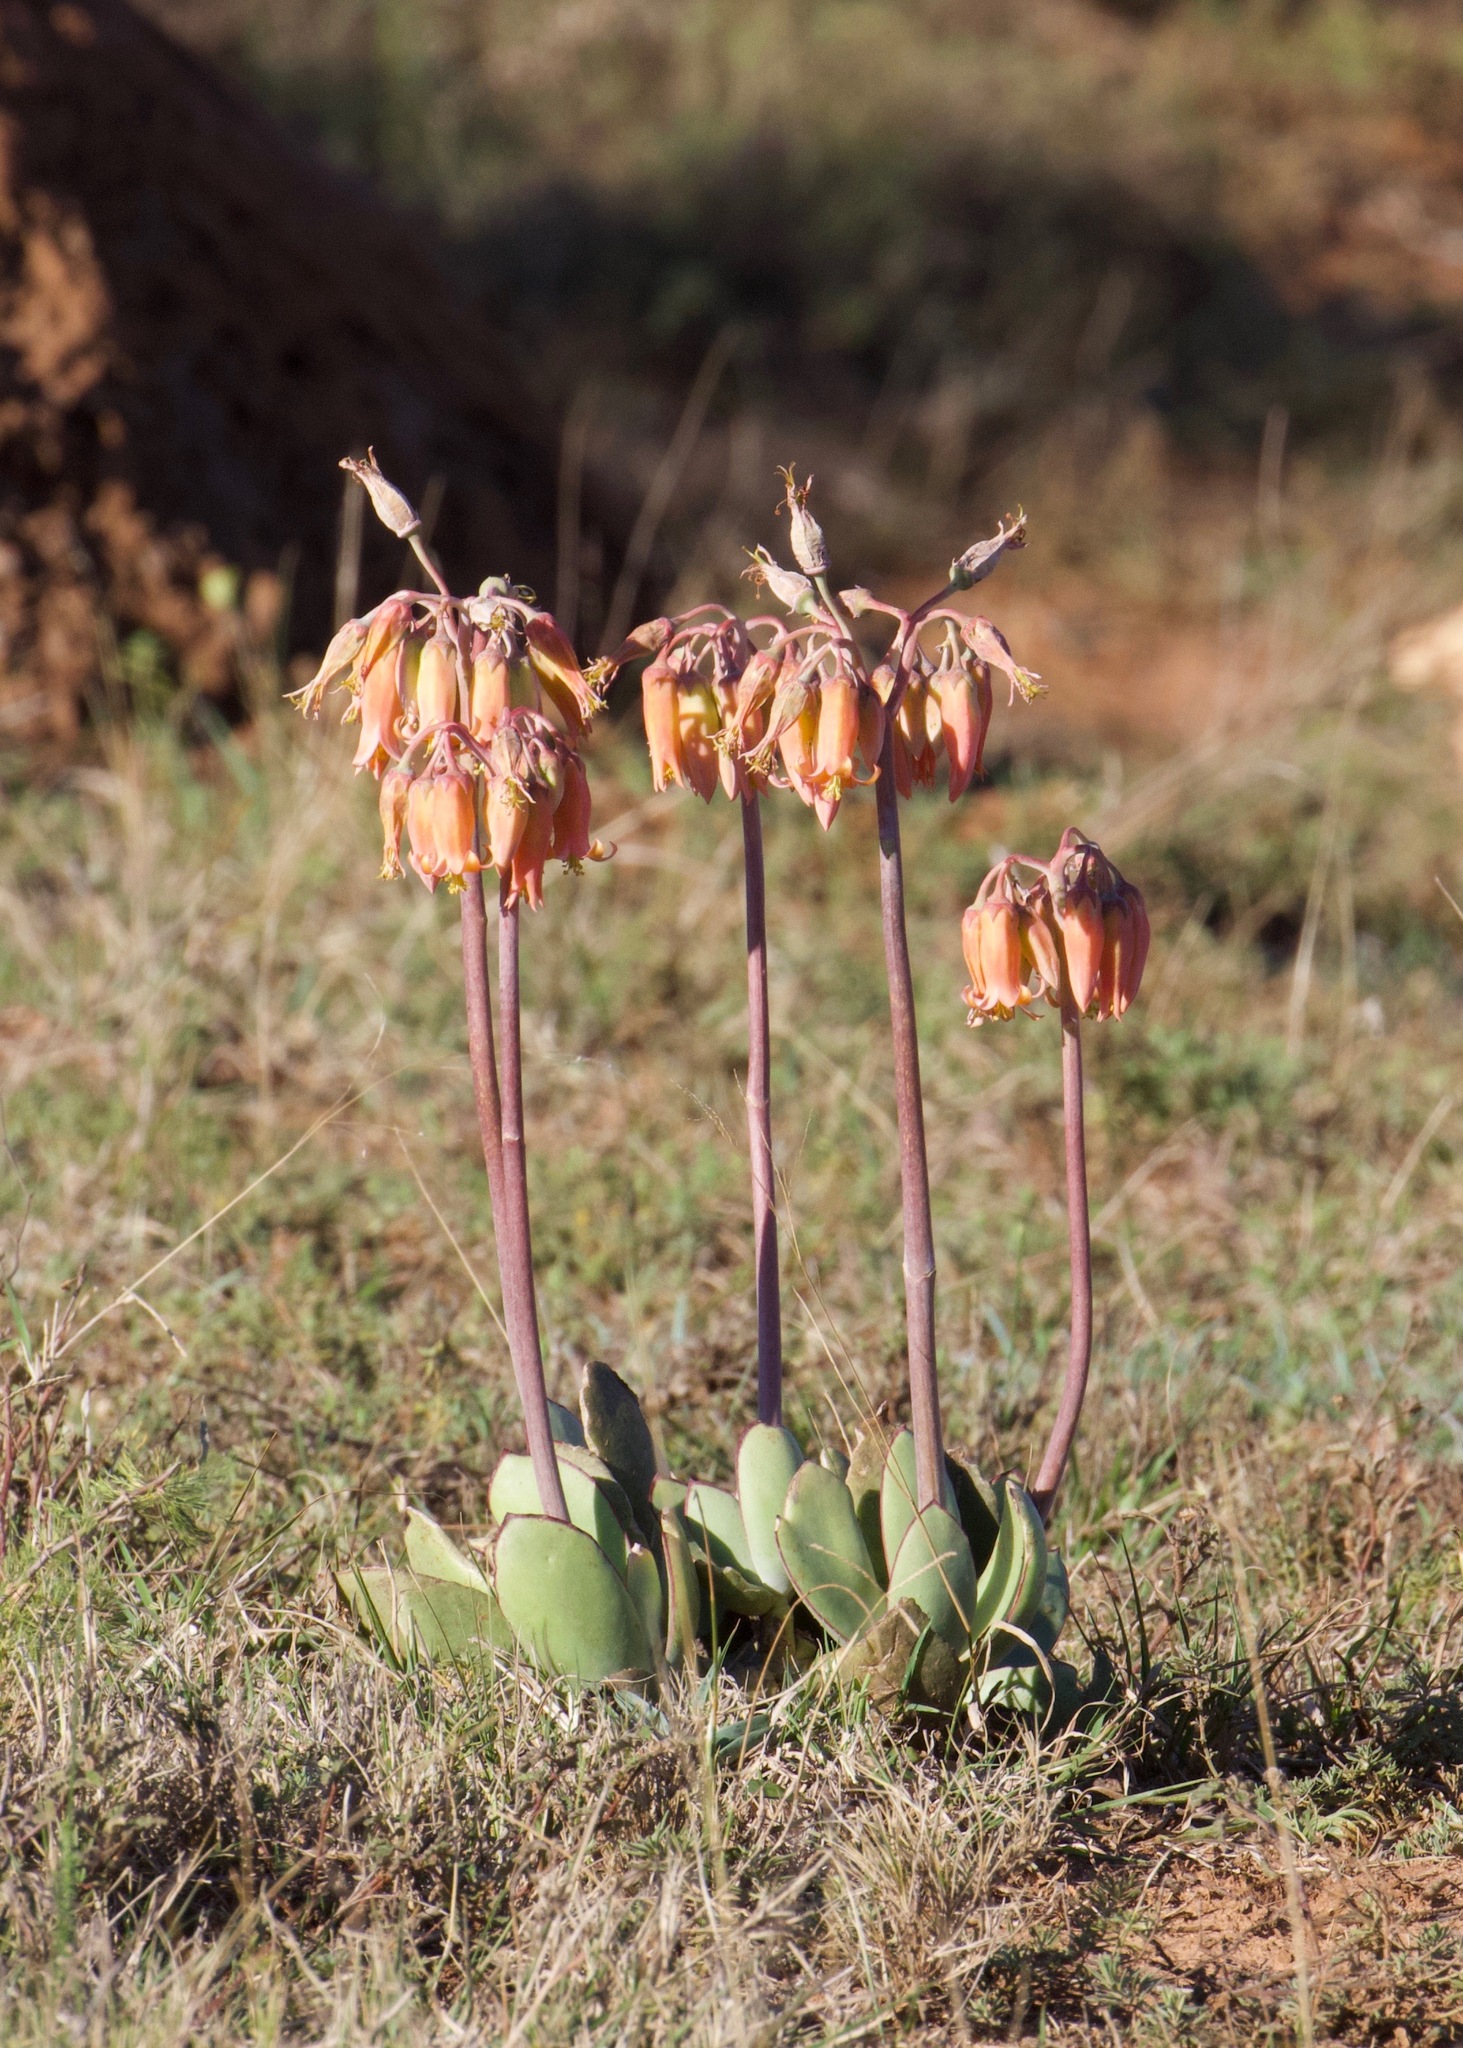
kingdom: Plantae
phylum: Tracheophyta
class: Magnoliopsida
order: Saxifragales
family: Crassulaceae
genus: Cotyledon
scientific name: Cotyledon orbiculata
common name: Pig's ear
